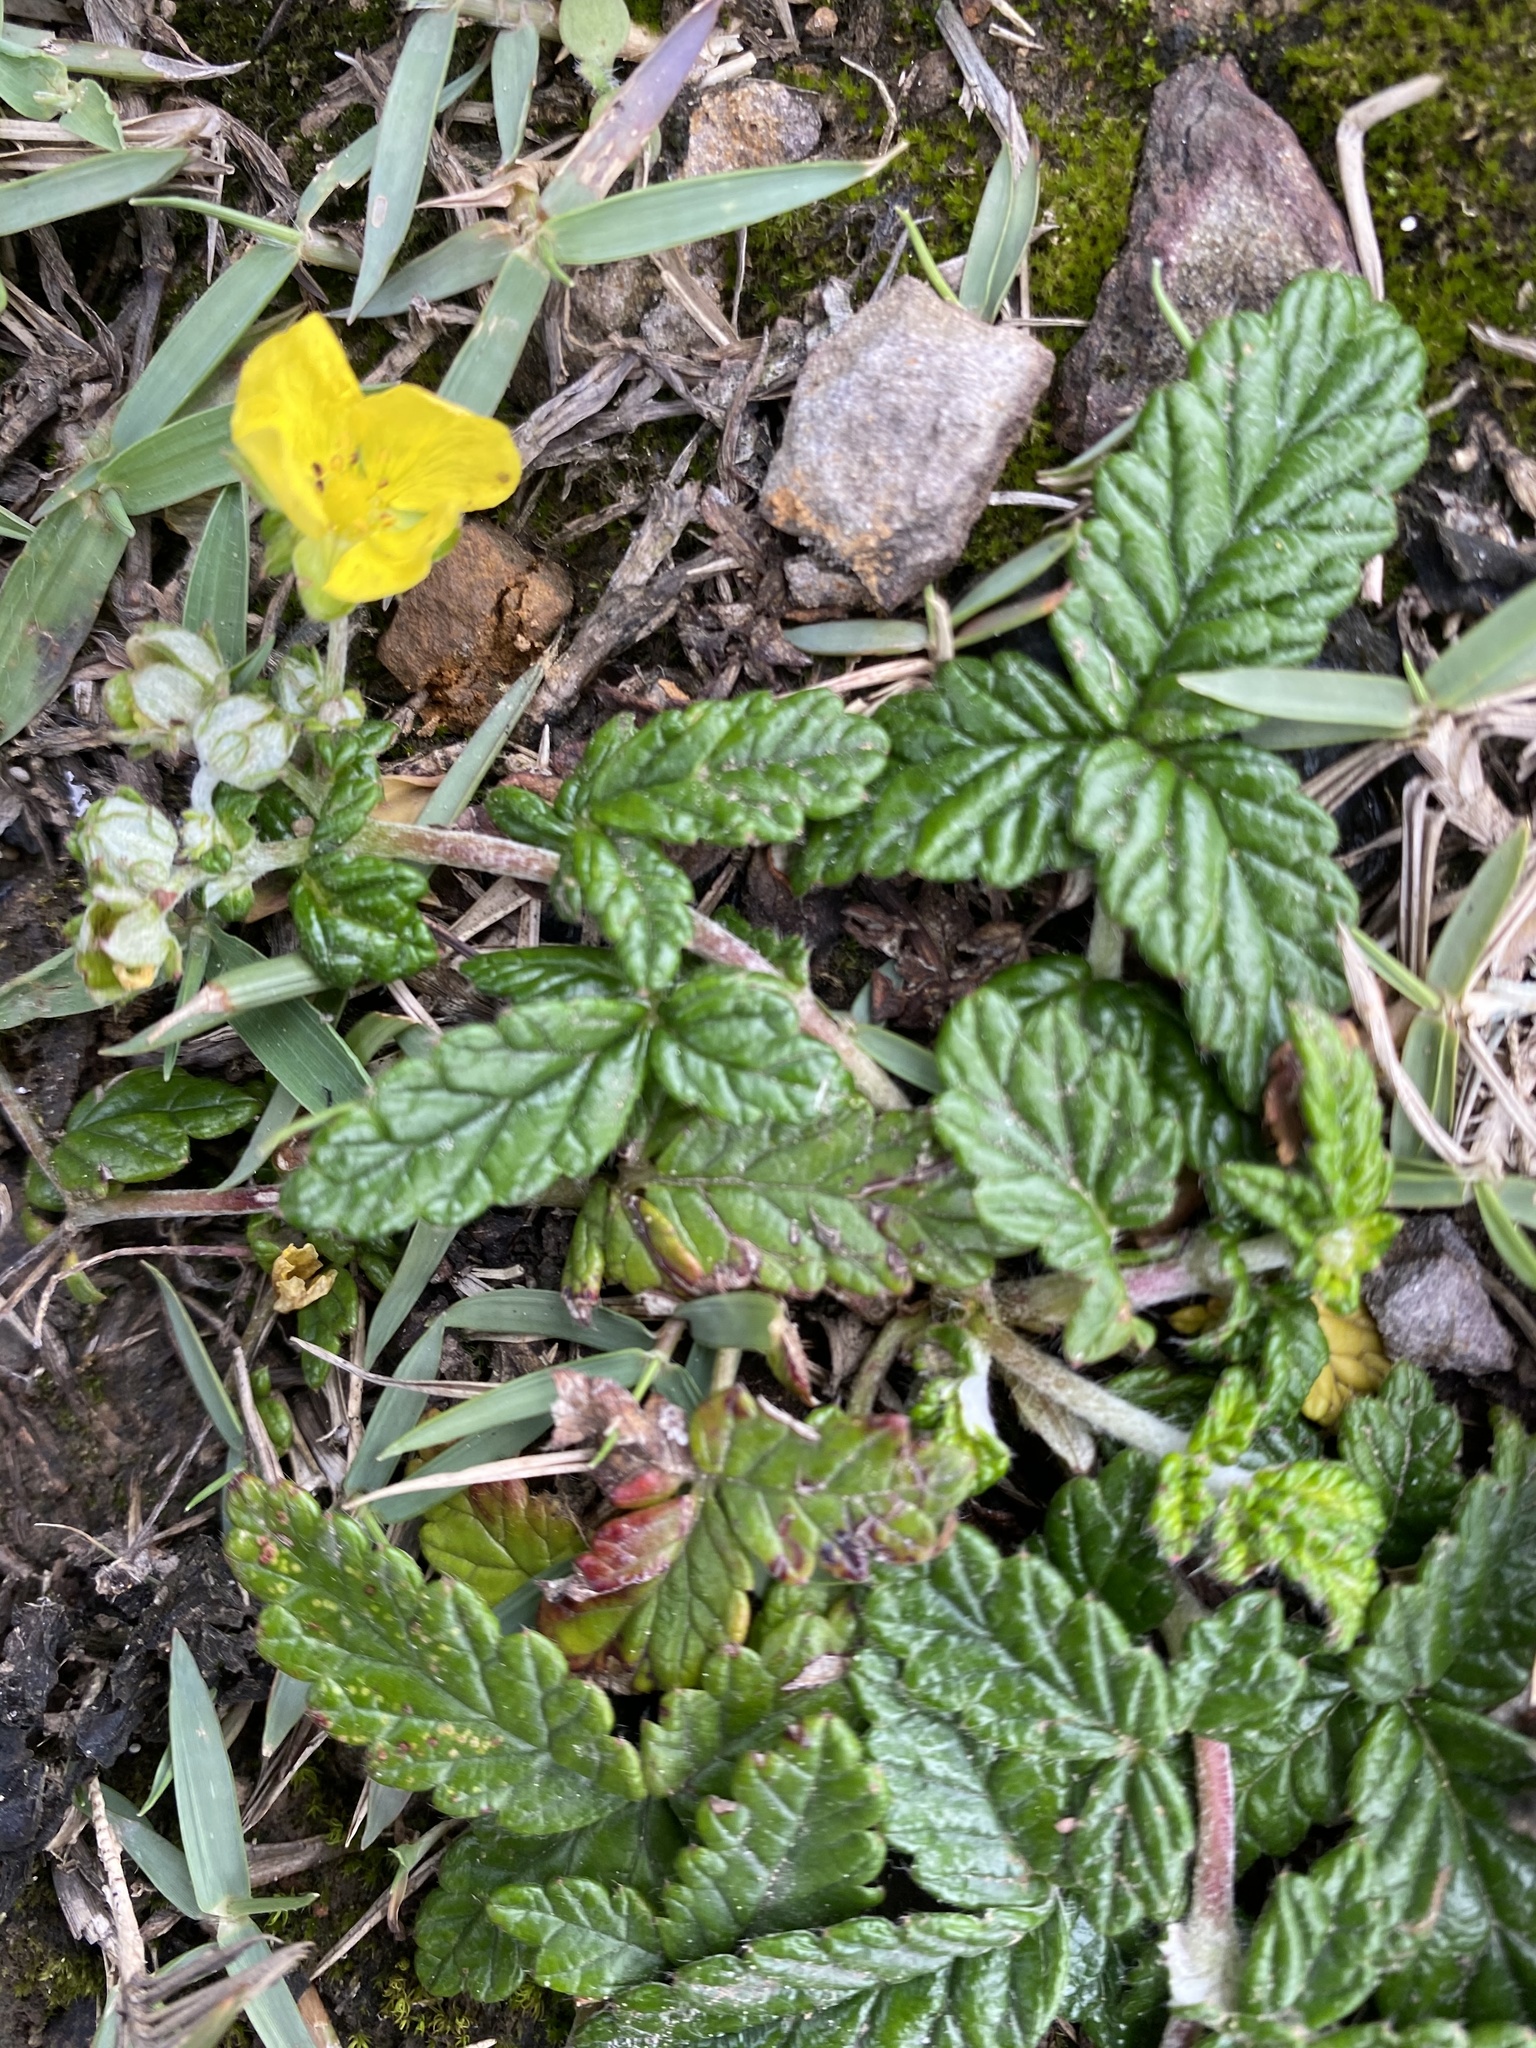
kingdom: Plantae
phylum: Tracheophyta
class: Magnoliopsida
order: Rosales
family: Rosaceae
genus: Potentilla
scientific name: Potentilla discolor
